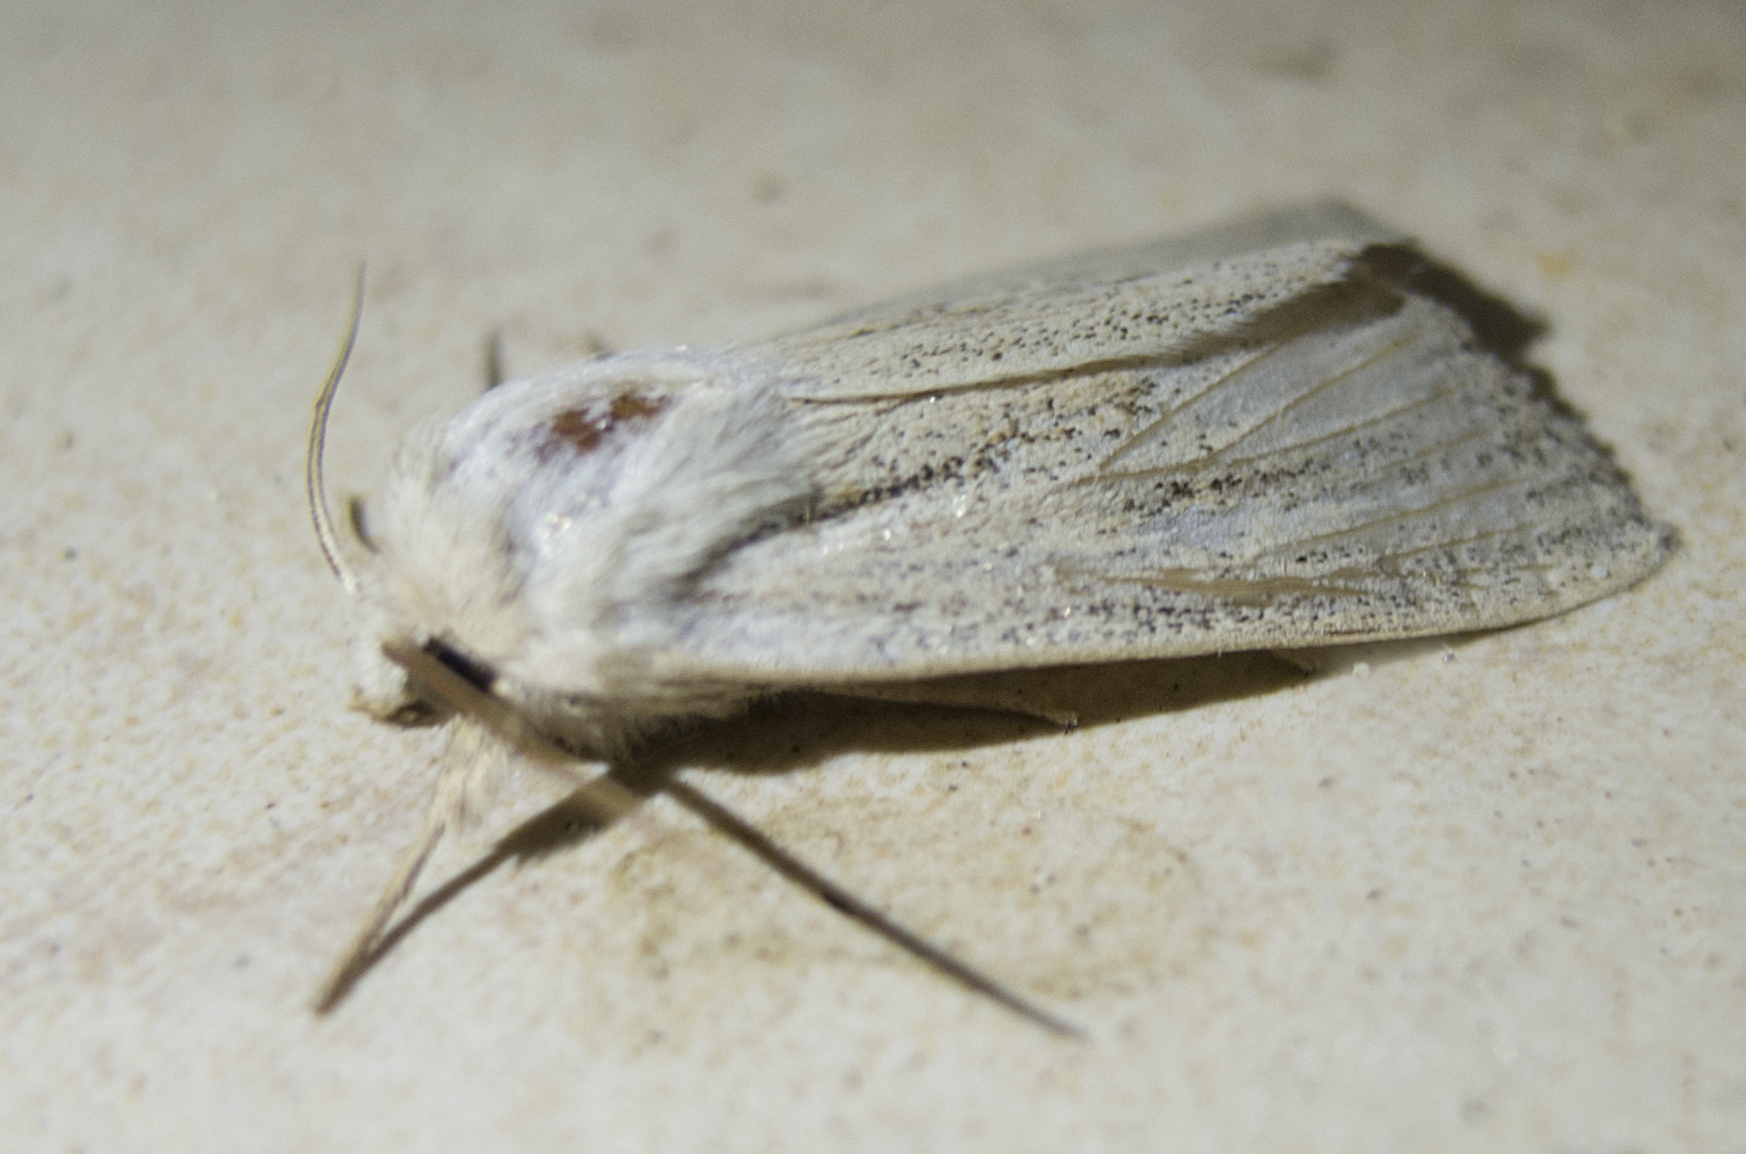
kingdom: Animalia
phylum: Arthropoda
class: Insecta
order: Lepidoptera
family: Noctuidae
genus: Simyra
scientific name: Simyra albovenosa
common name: Reed dagger
